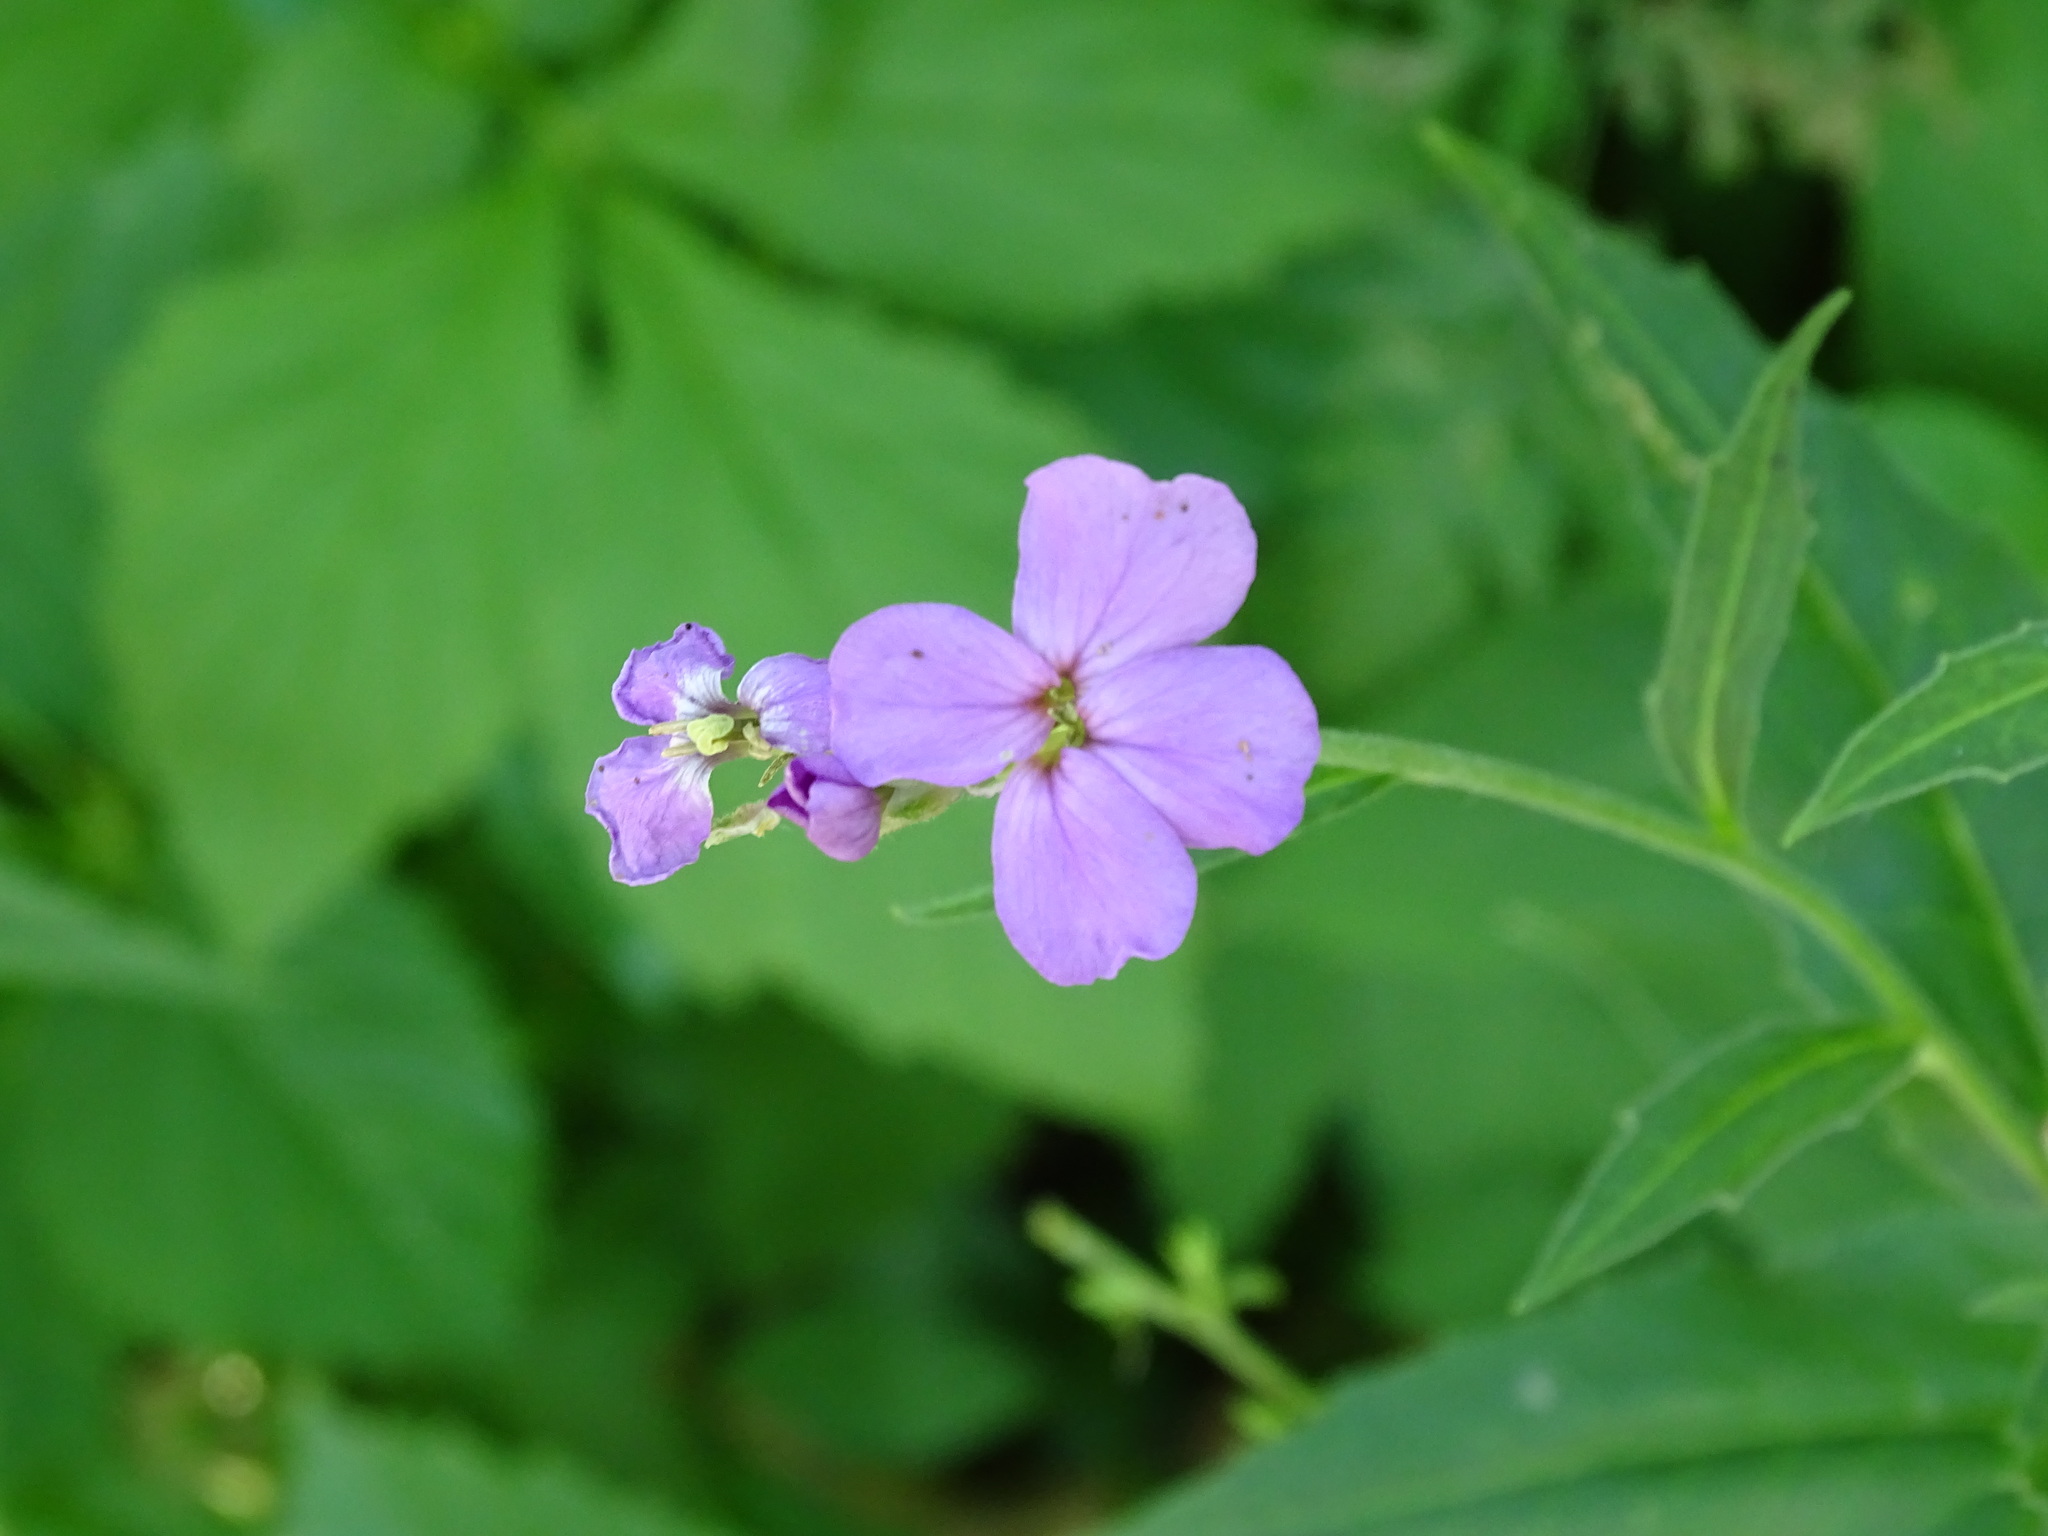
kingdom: Plantae
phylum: Tracheophyta
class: Magnoliopsida
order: Brassicales
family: Brassicaceae
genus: Hesperis
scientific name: Hesperis matronalis
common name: Dame's-violet
